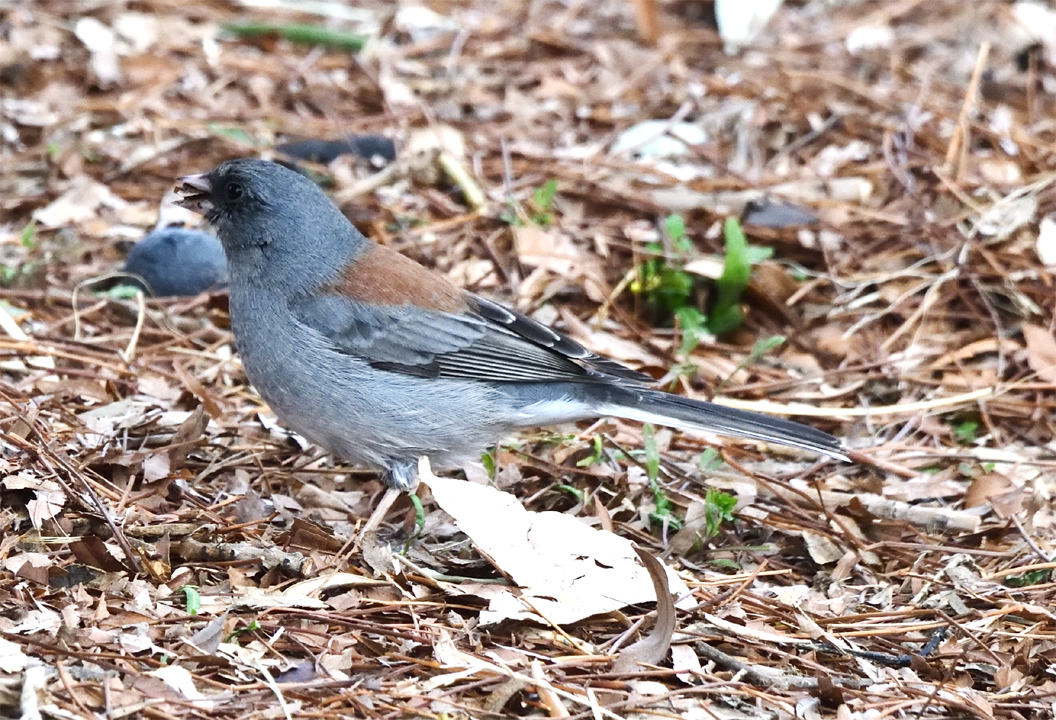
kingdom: Animalia
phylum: Chordata
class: Aves
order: Passeriformes
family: Passerellidae
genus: Junco
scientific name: Junco hyemalis
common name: Dark-eyed junco
